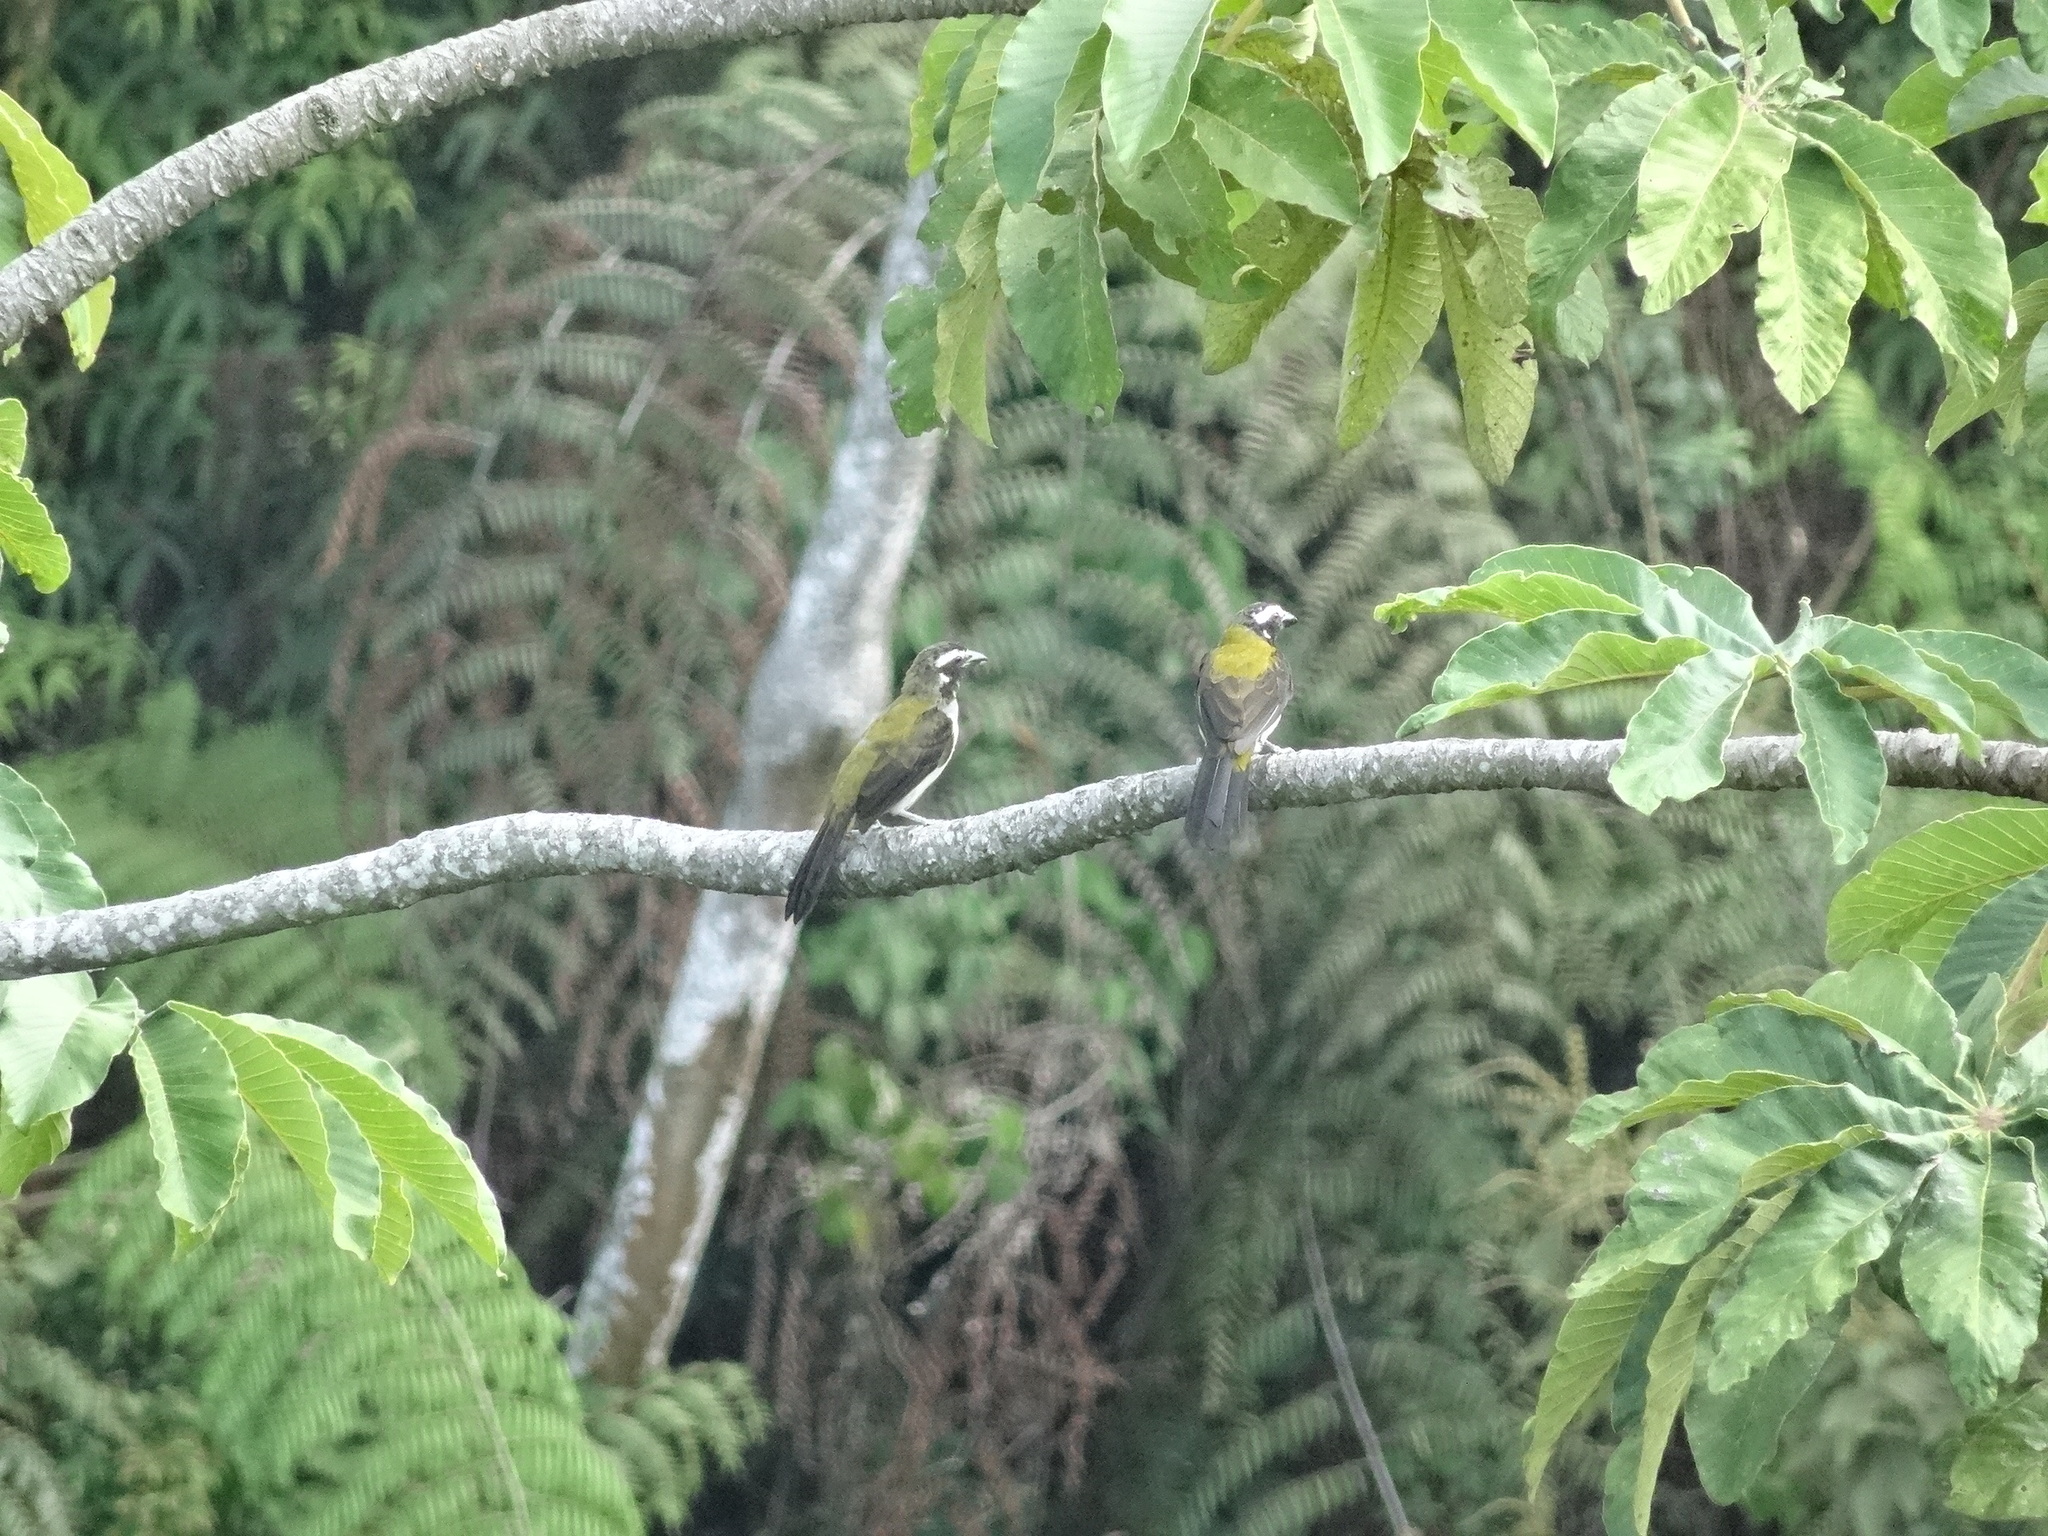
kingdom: Animalia
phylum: Chordata
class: Aves
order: Passeriformes
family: Thraupidae
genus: Saltator
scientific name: Saltator atripennis
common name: Black-winged saltator
